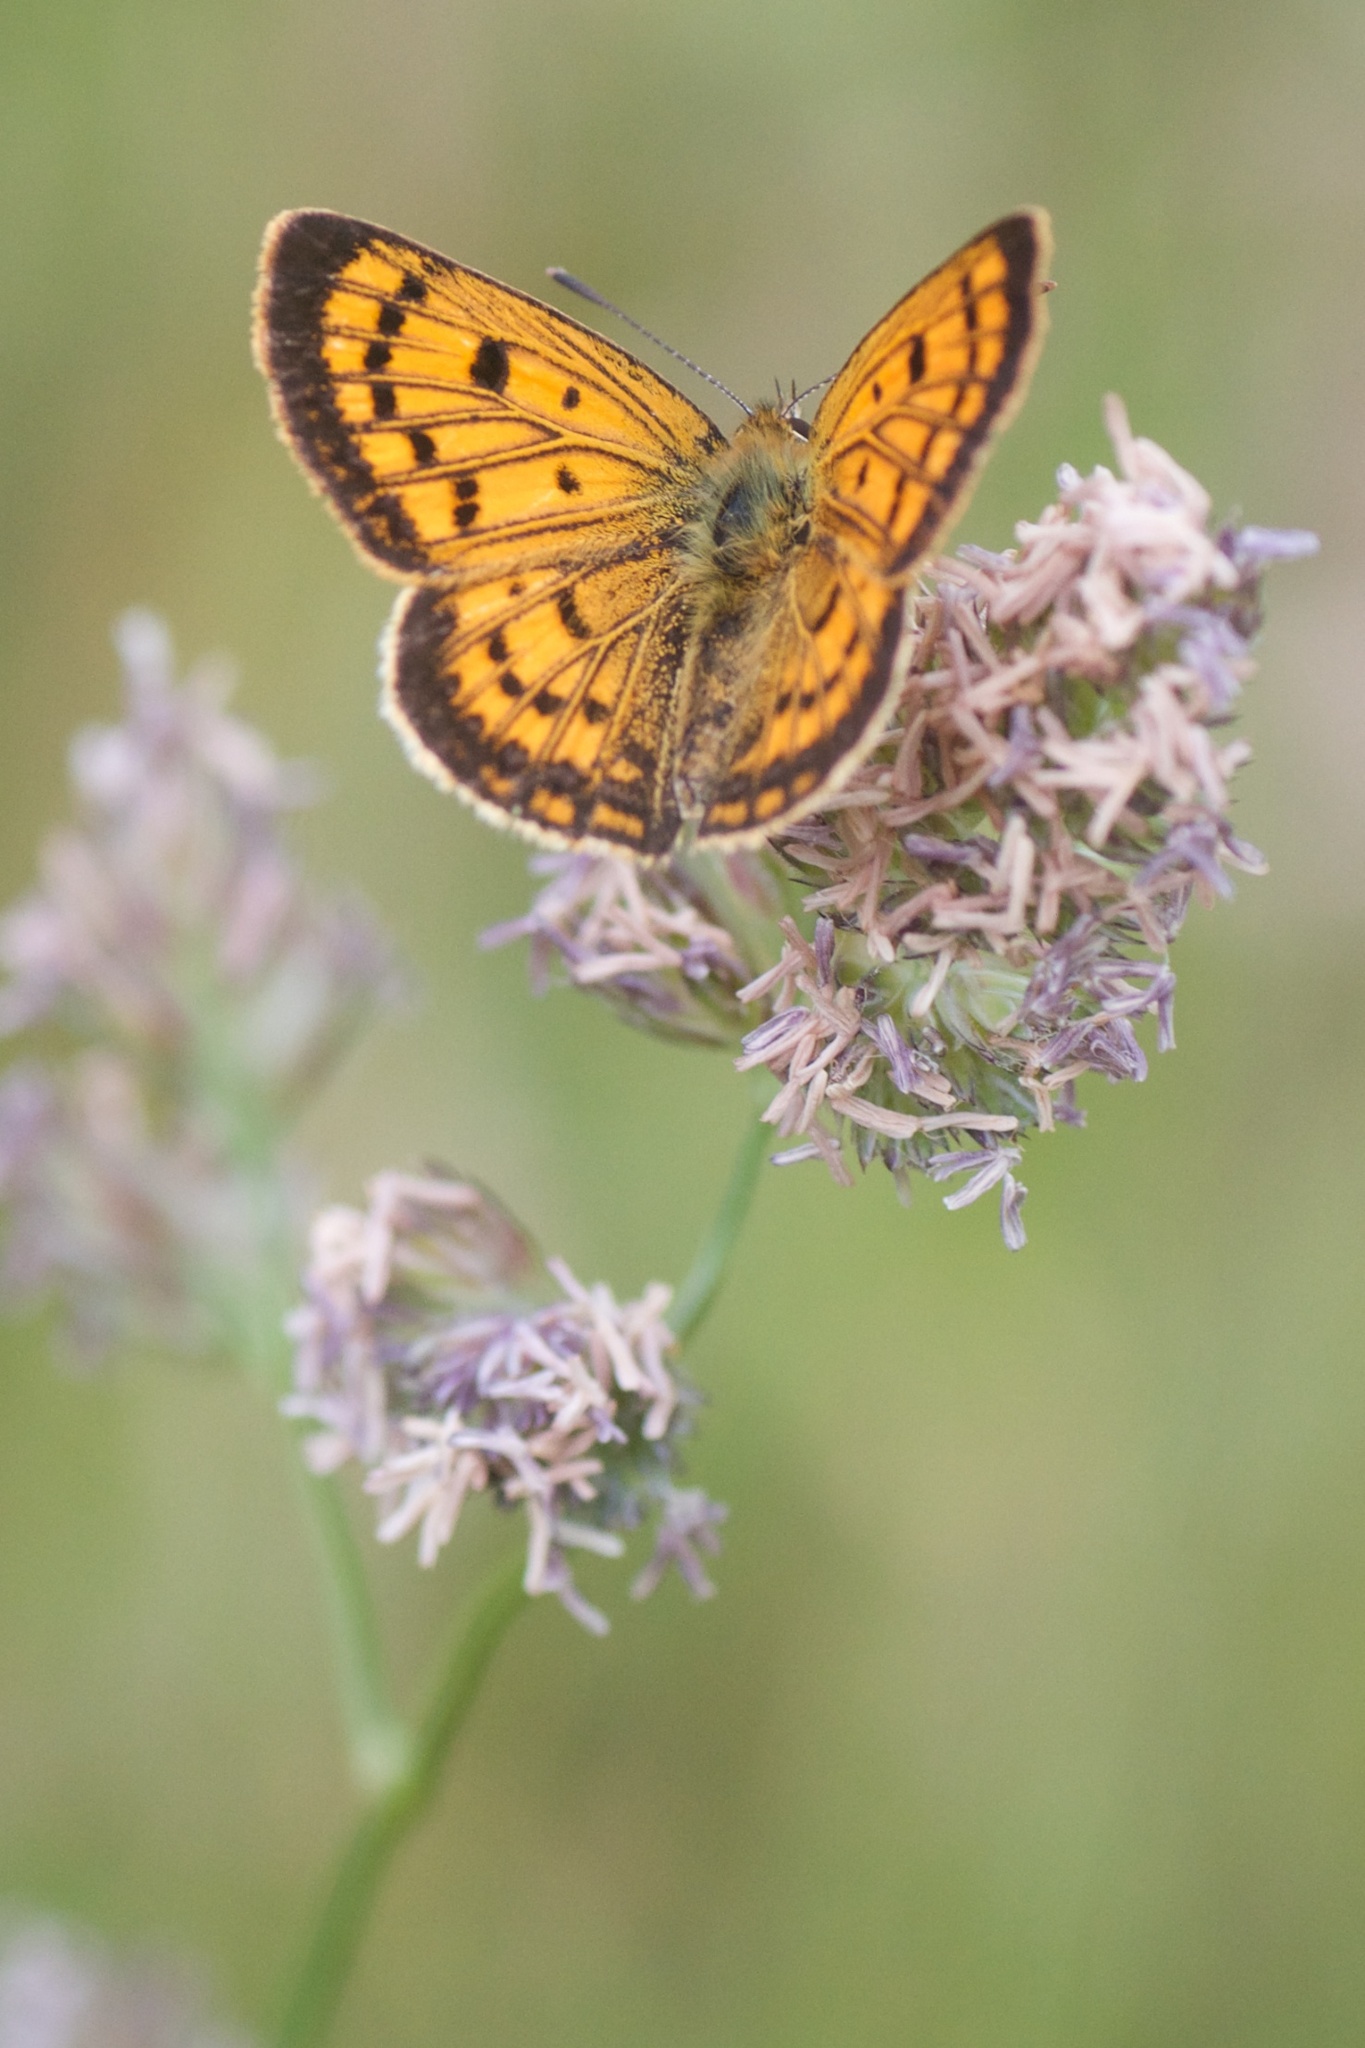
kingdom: Animalia
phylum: Arthropoda
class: Insecta
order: Lepidoptera
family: Lycaenidae
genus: Lycaena
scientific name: Lycaena salustius
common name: North island coastal copper
